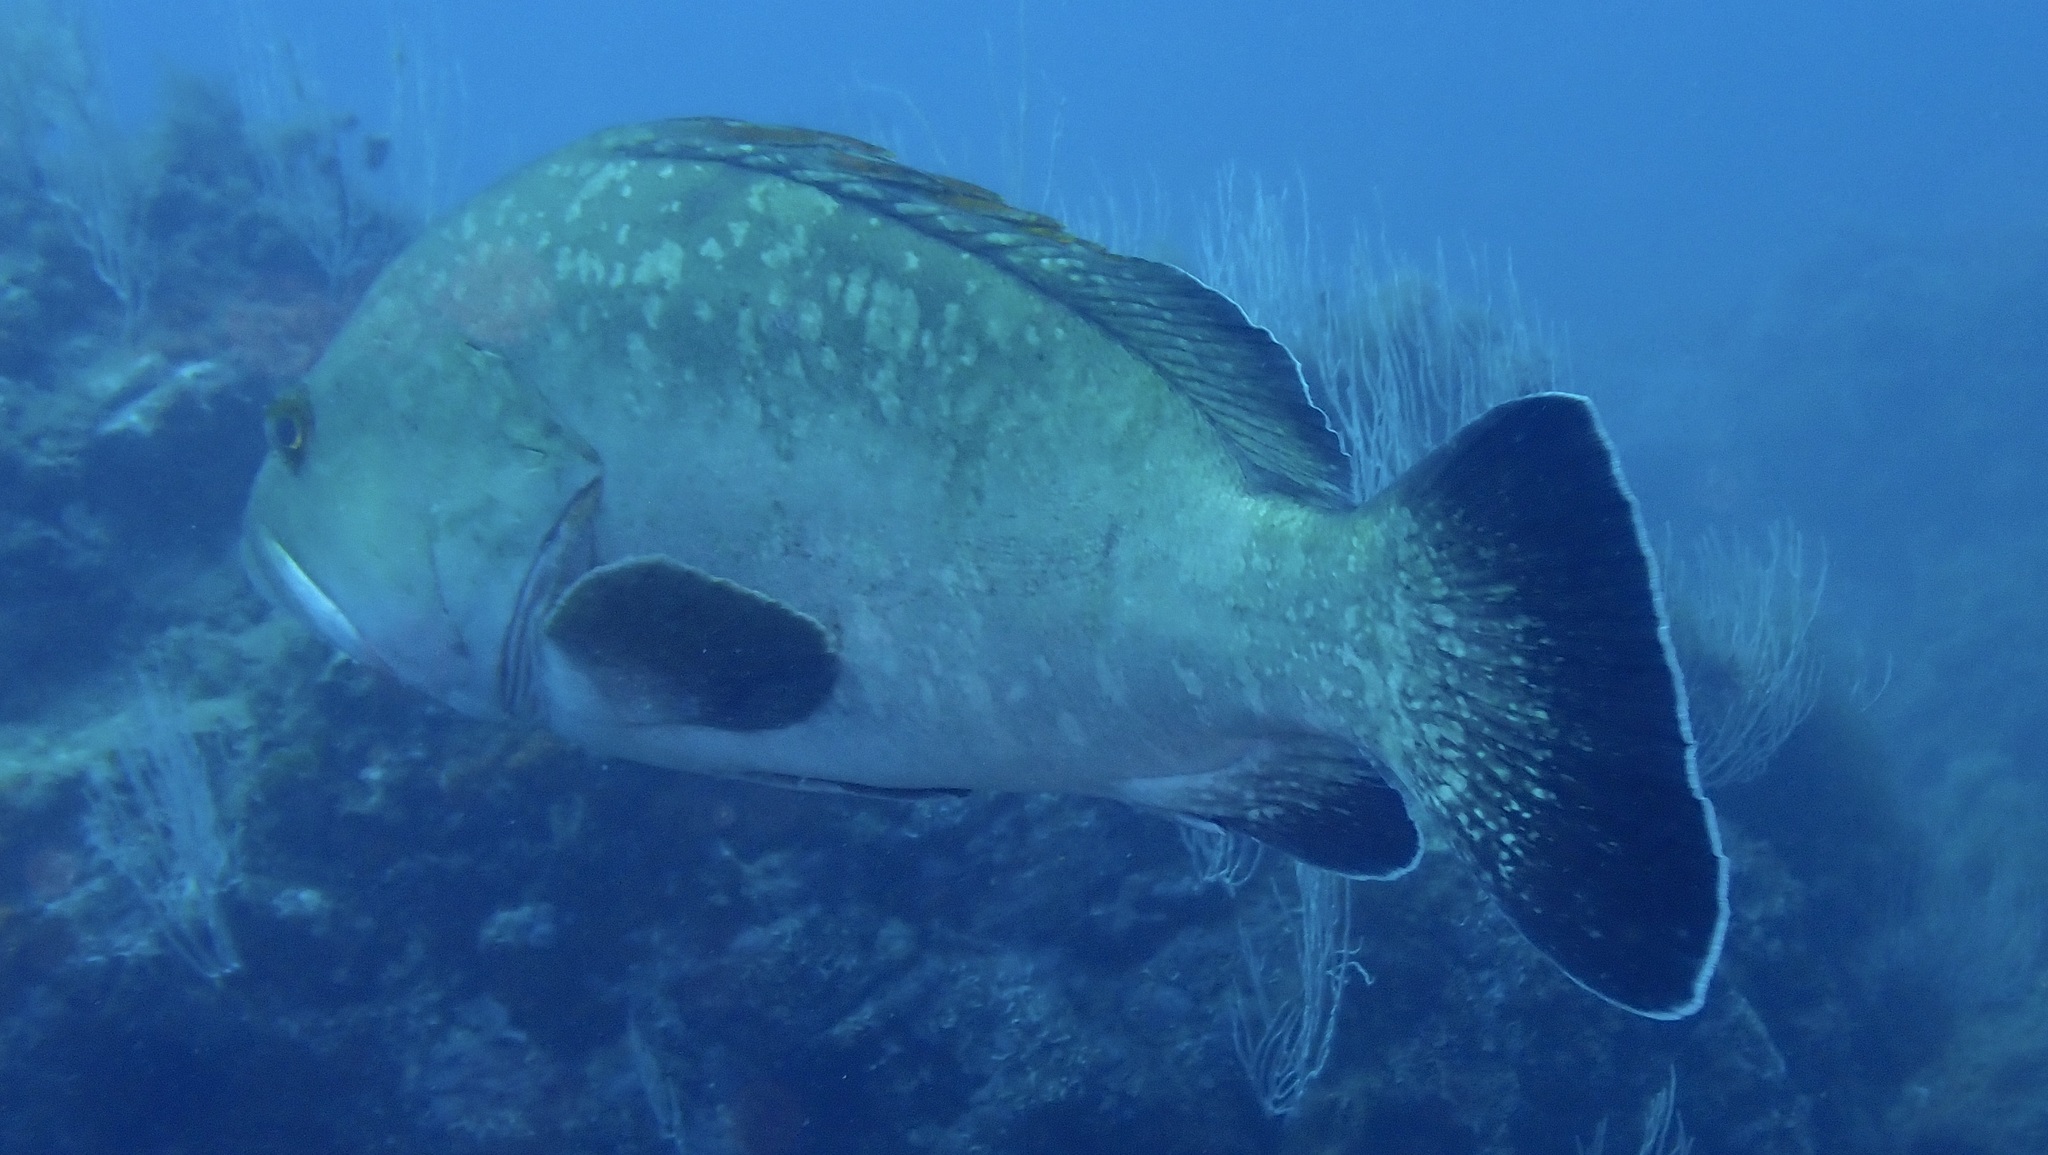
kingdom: Animalia
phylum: Chordata
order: Perciformes
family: Serranidae
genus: Epinephelus
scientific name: Epinephelus marginatus
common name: Dusky grouper
